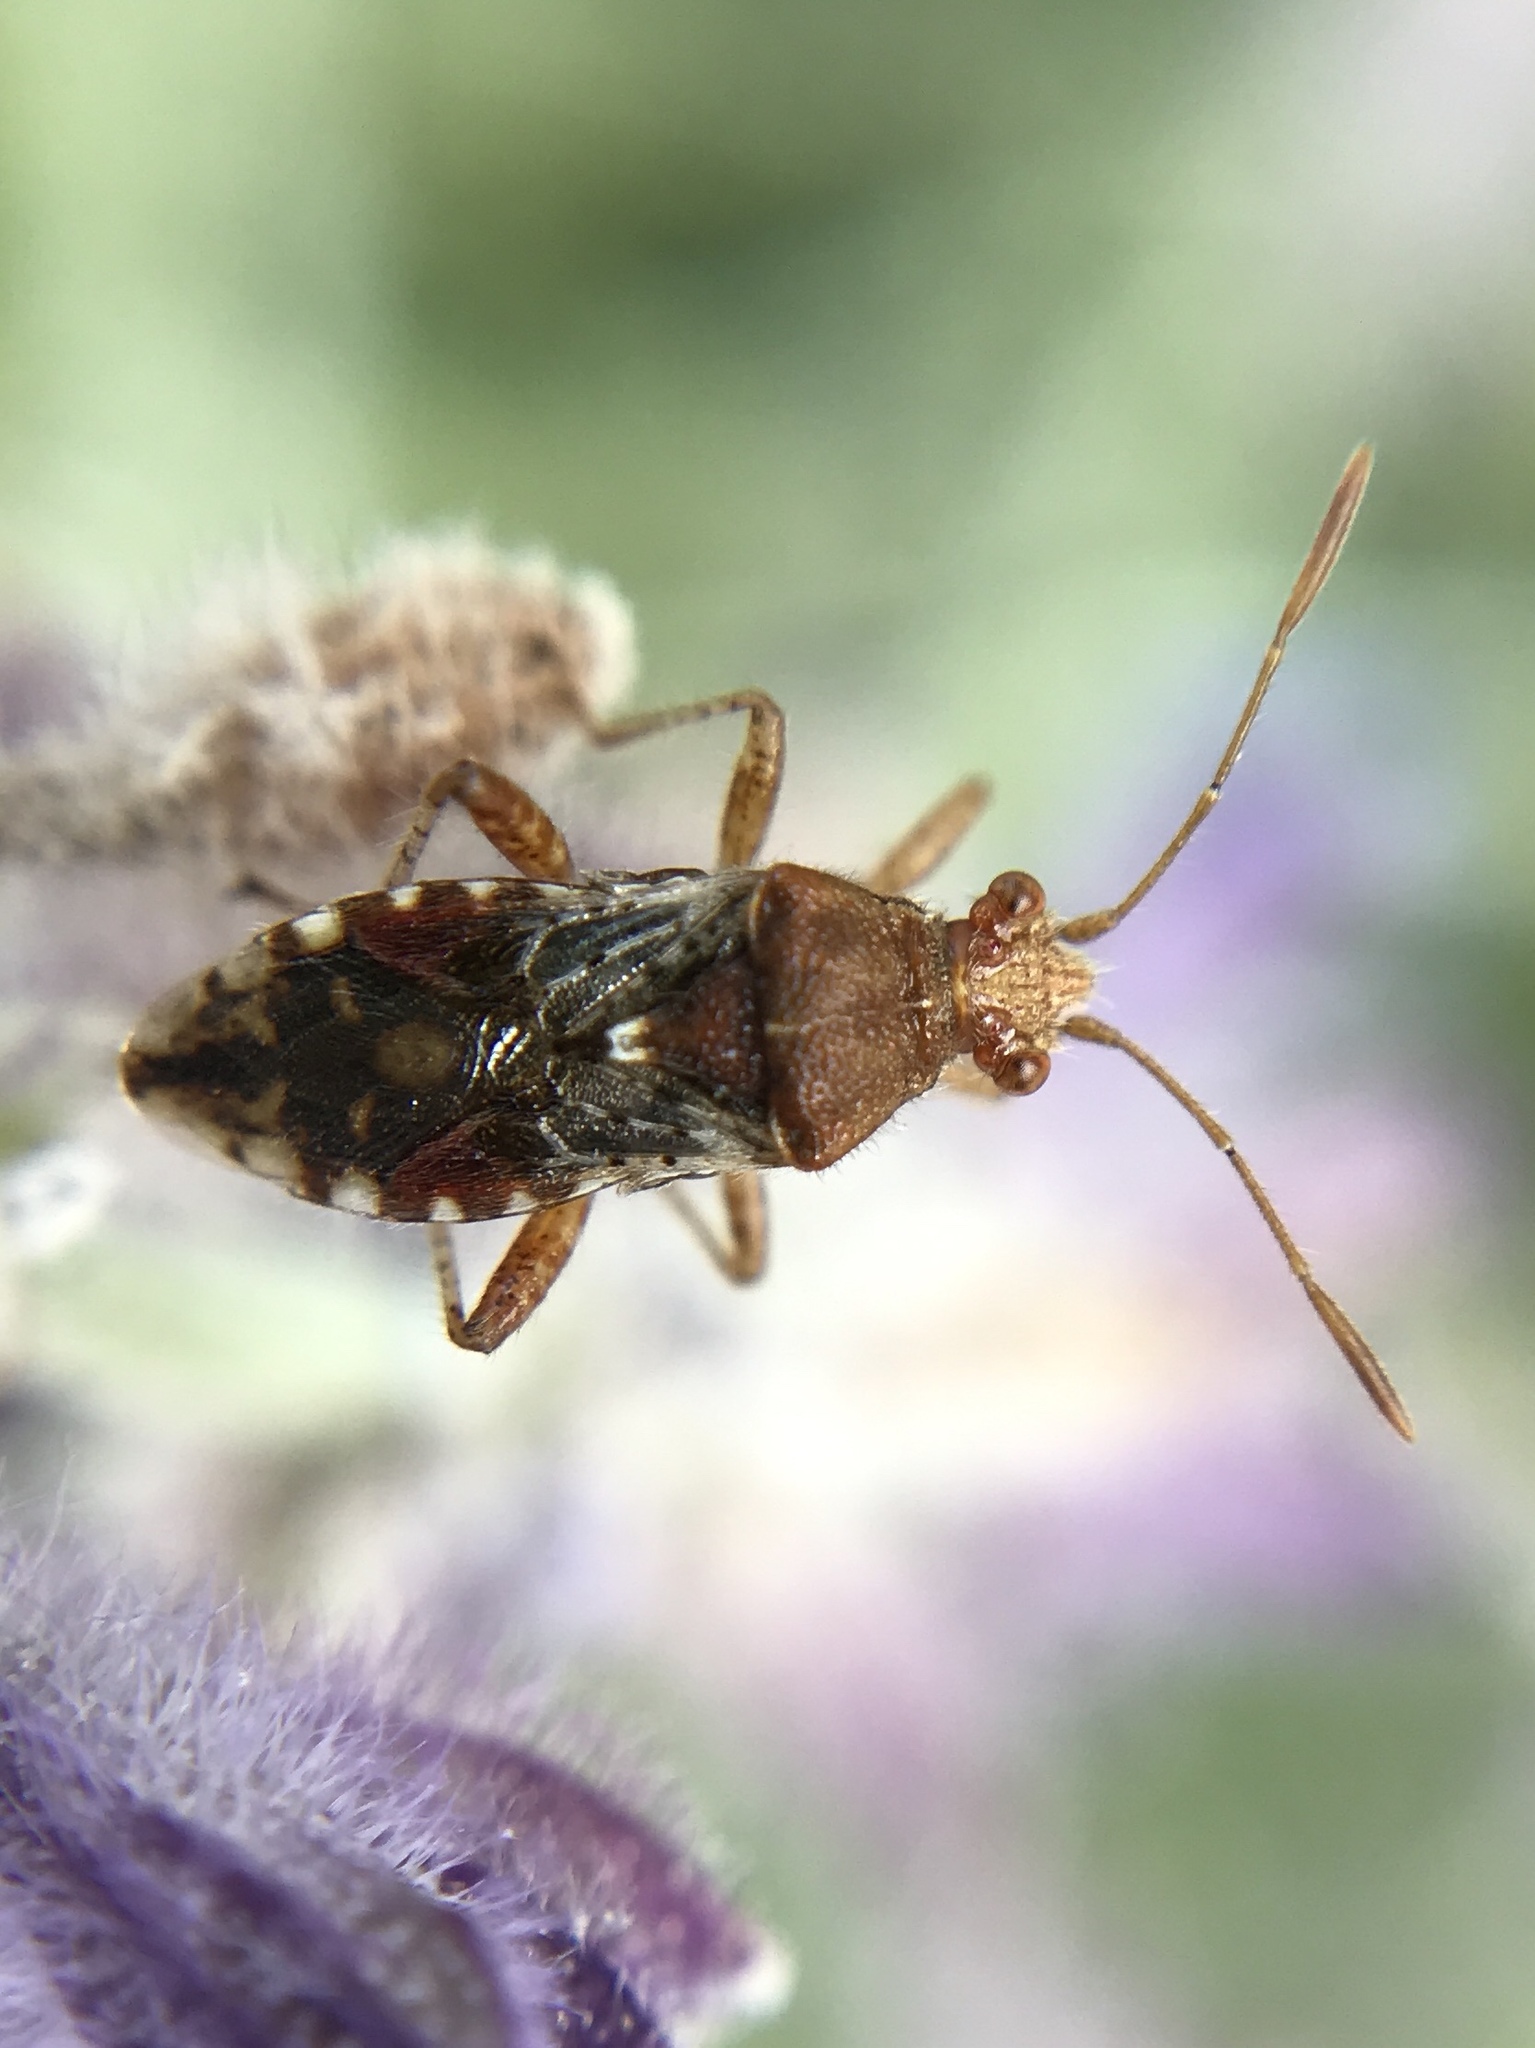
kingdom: Animalia
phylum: Arthropoda
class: Insecta
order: Hemiptera
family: Rhopalidae
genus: Rhopalus
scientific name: Rhopalus subrufus
